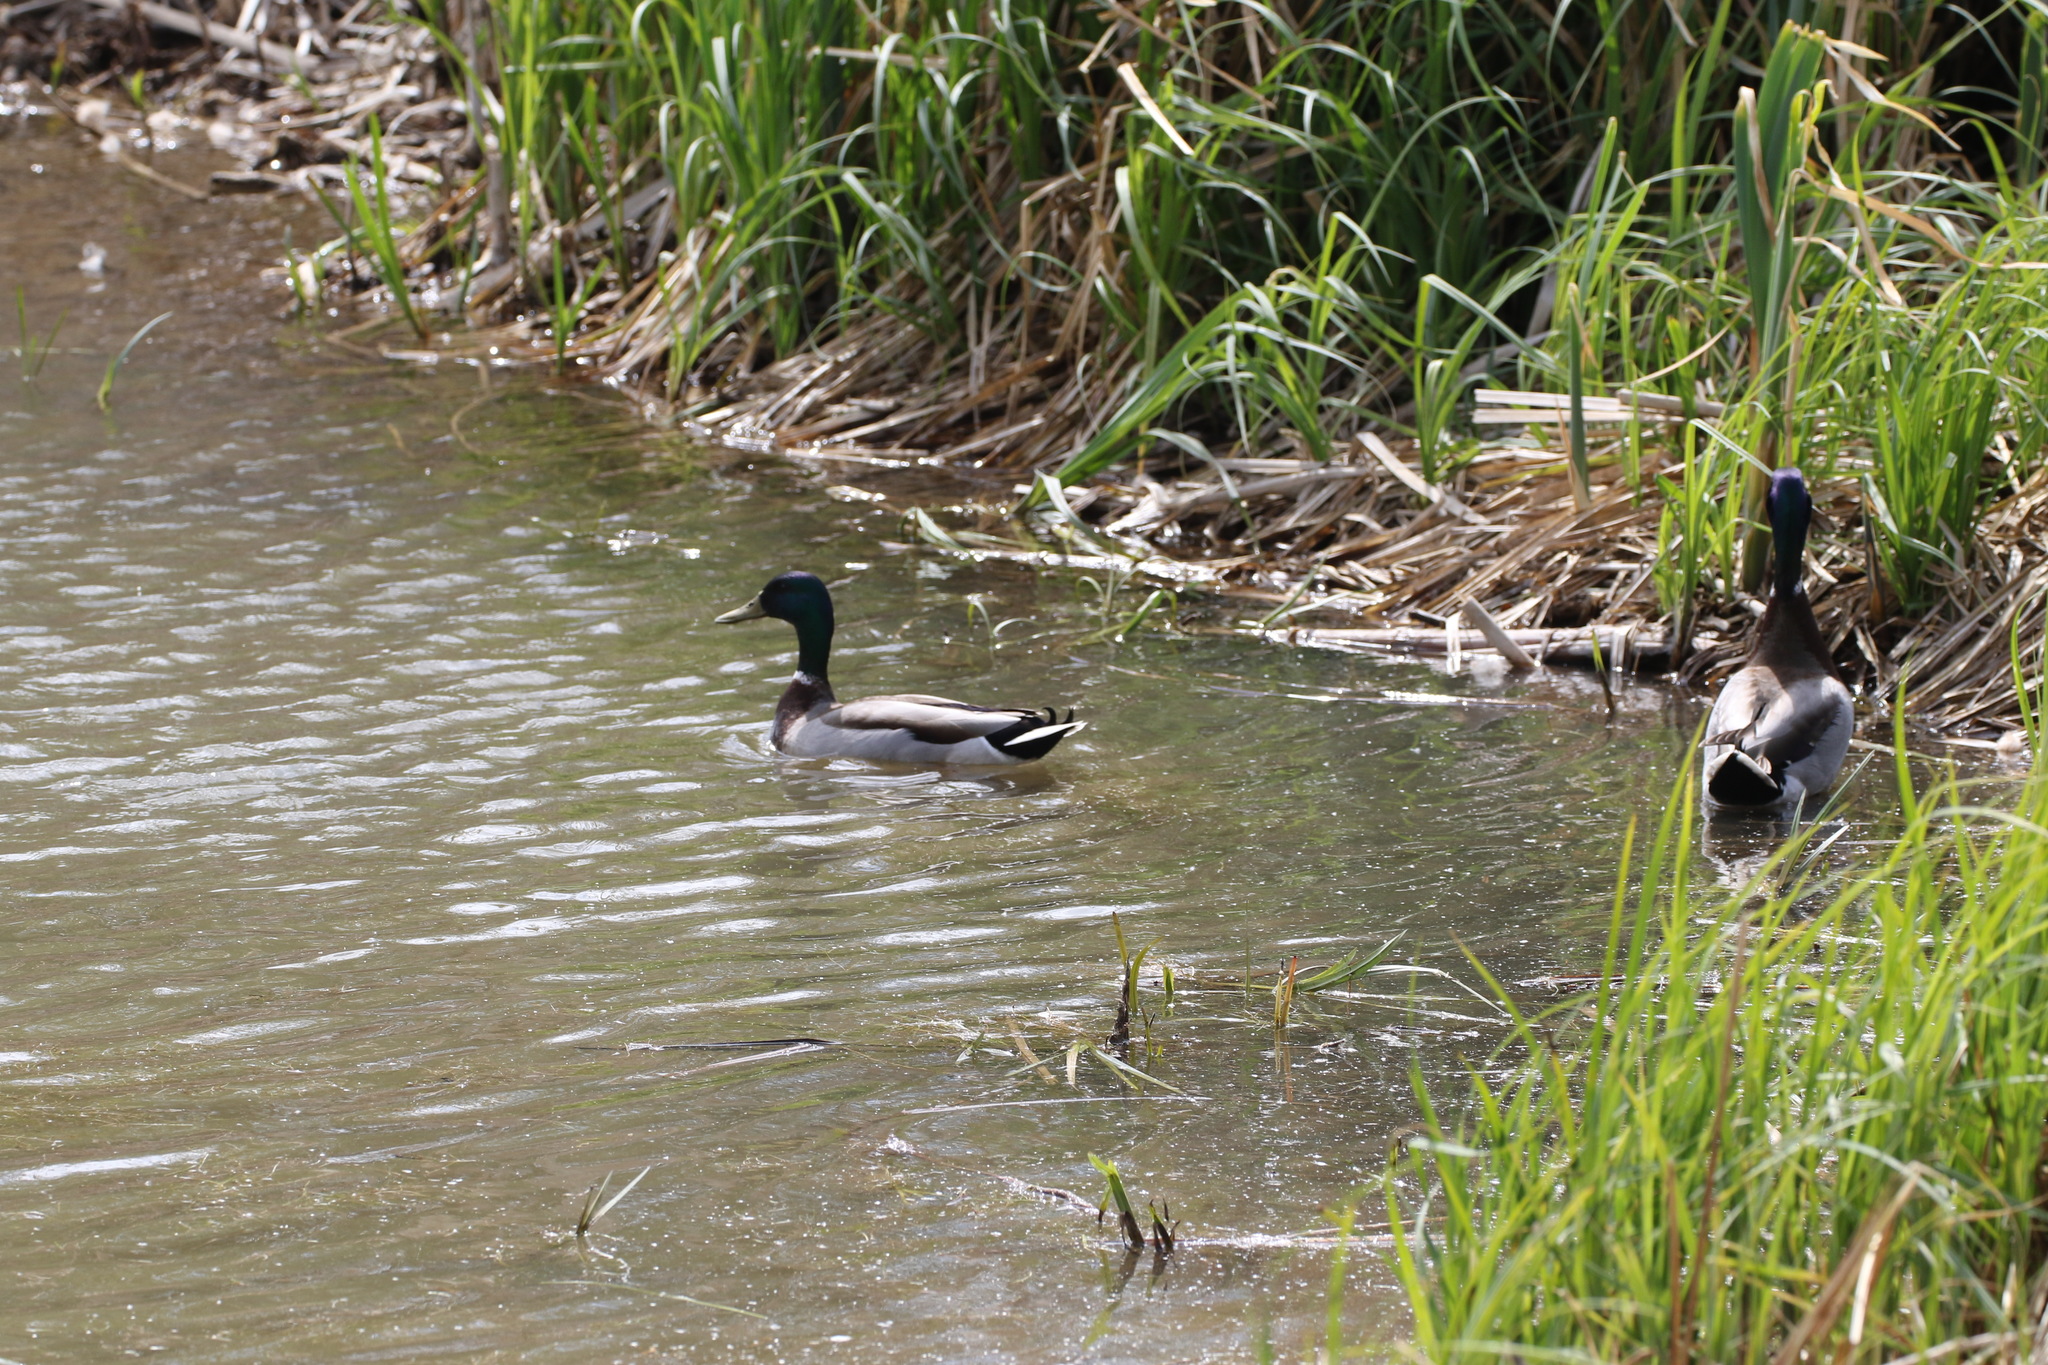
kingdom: Animalia
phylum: Chordata
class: Aves
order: Anseriformes
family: Anatidae
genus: Anas
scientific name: Anas platyrhynchos
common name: Mallard
